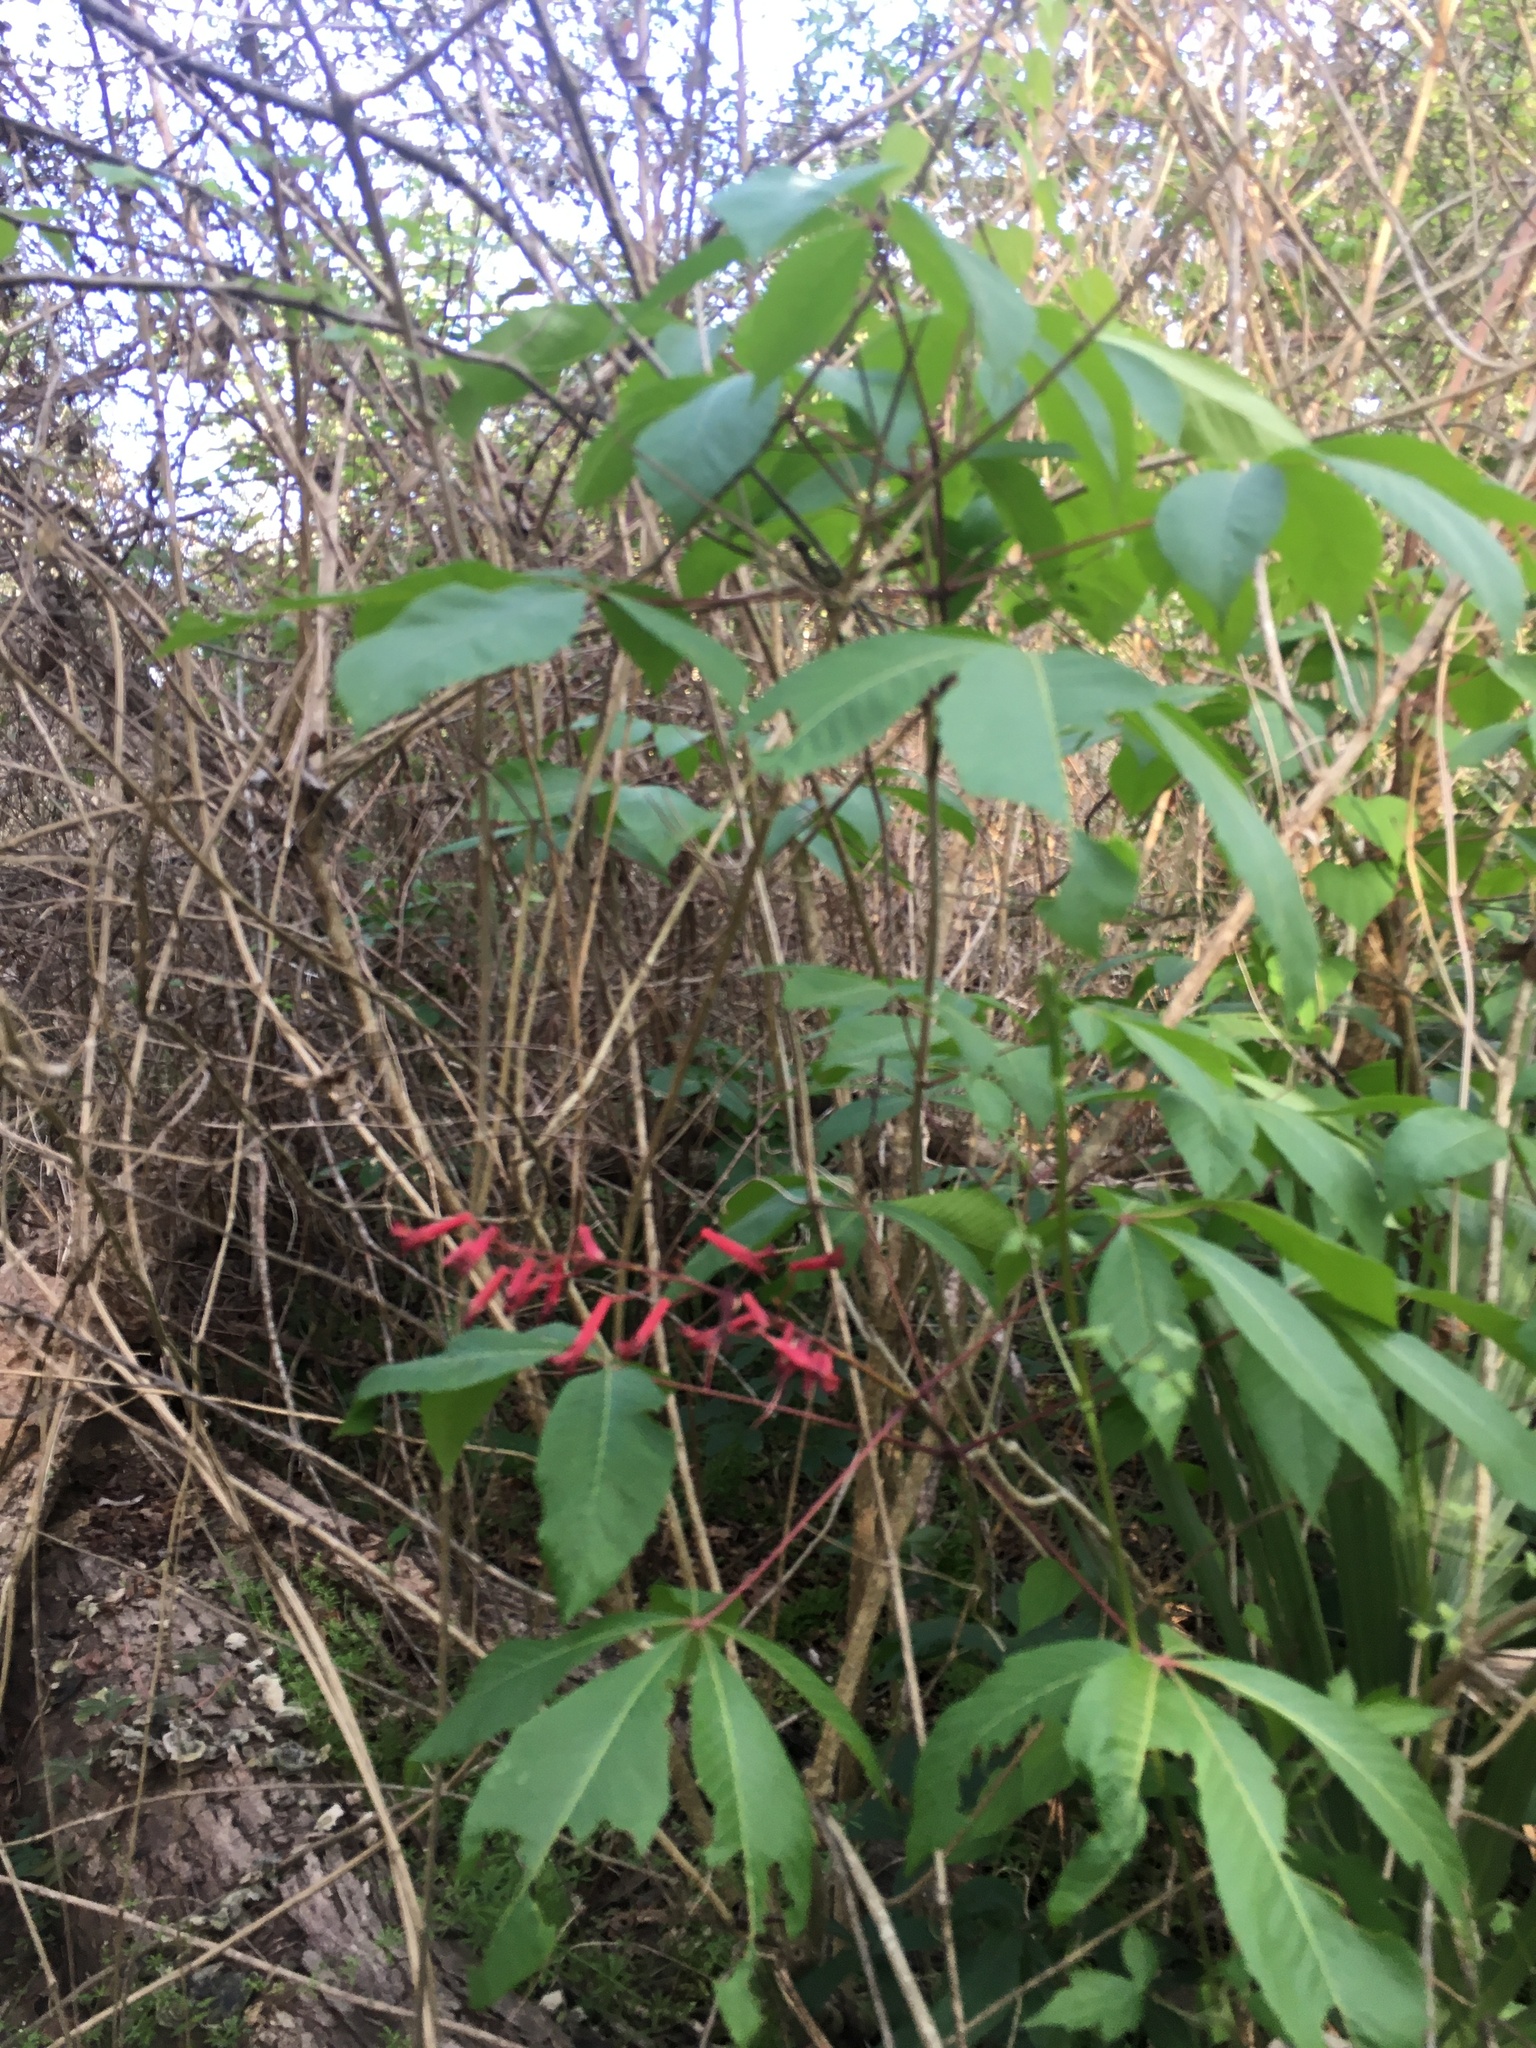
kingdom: Plantae
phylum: Tracheophyta
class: Magnoliopsida
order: Sapindales
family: Sapindaceae
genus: Aesculus
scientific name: Aesculus pavia
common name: Red buckeye
